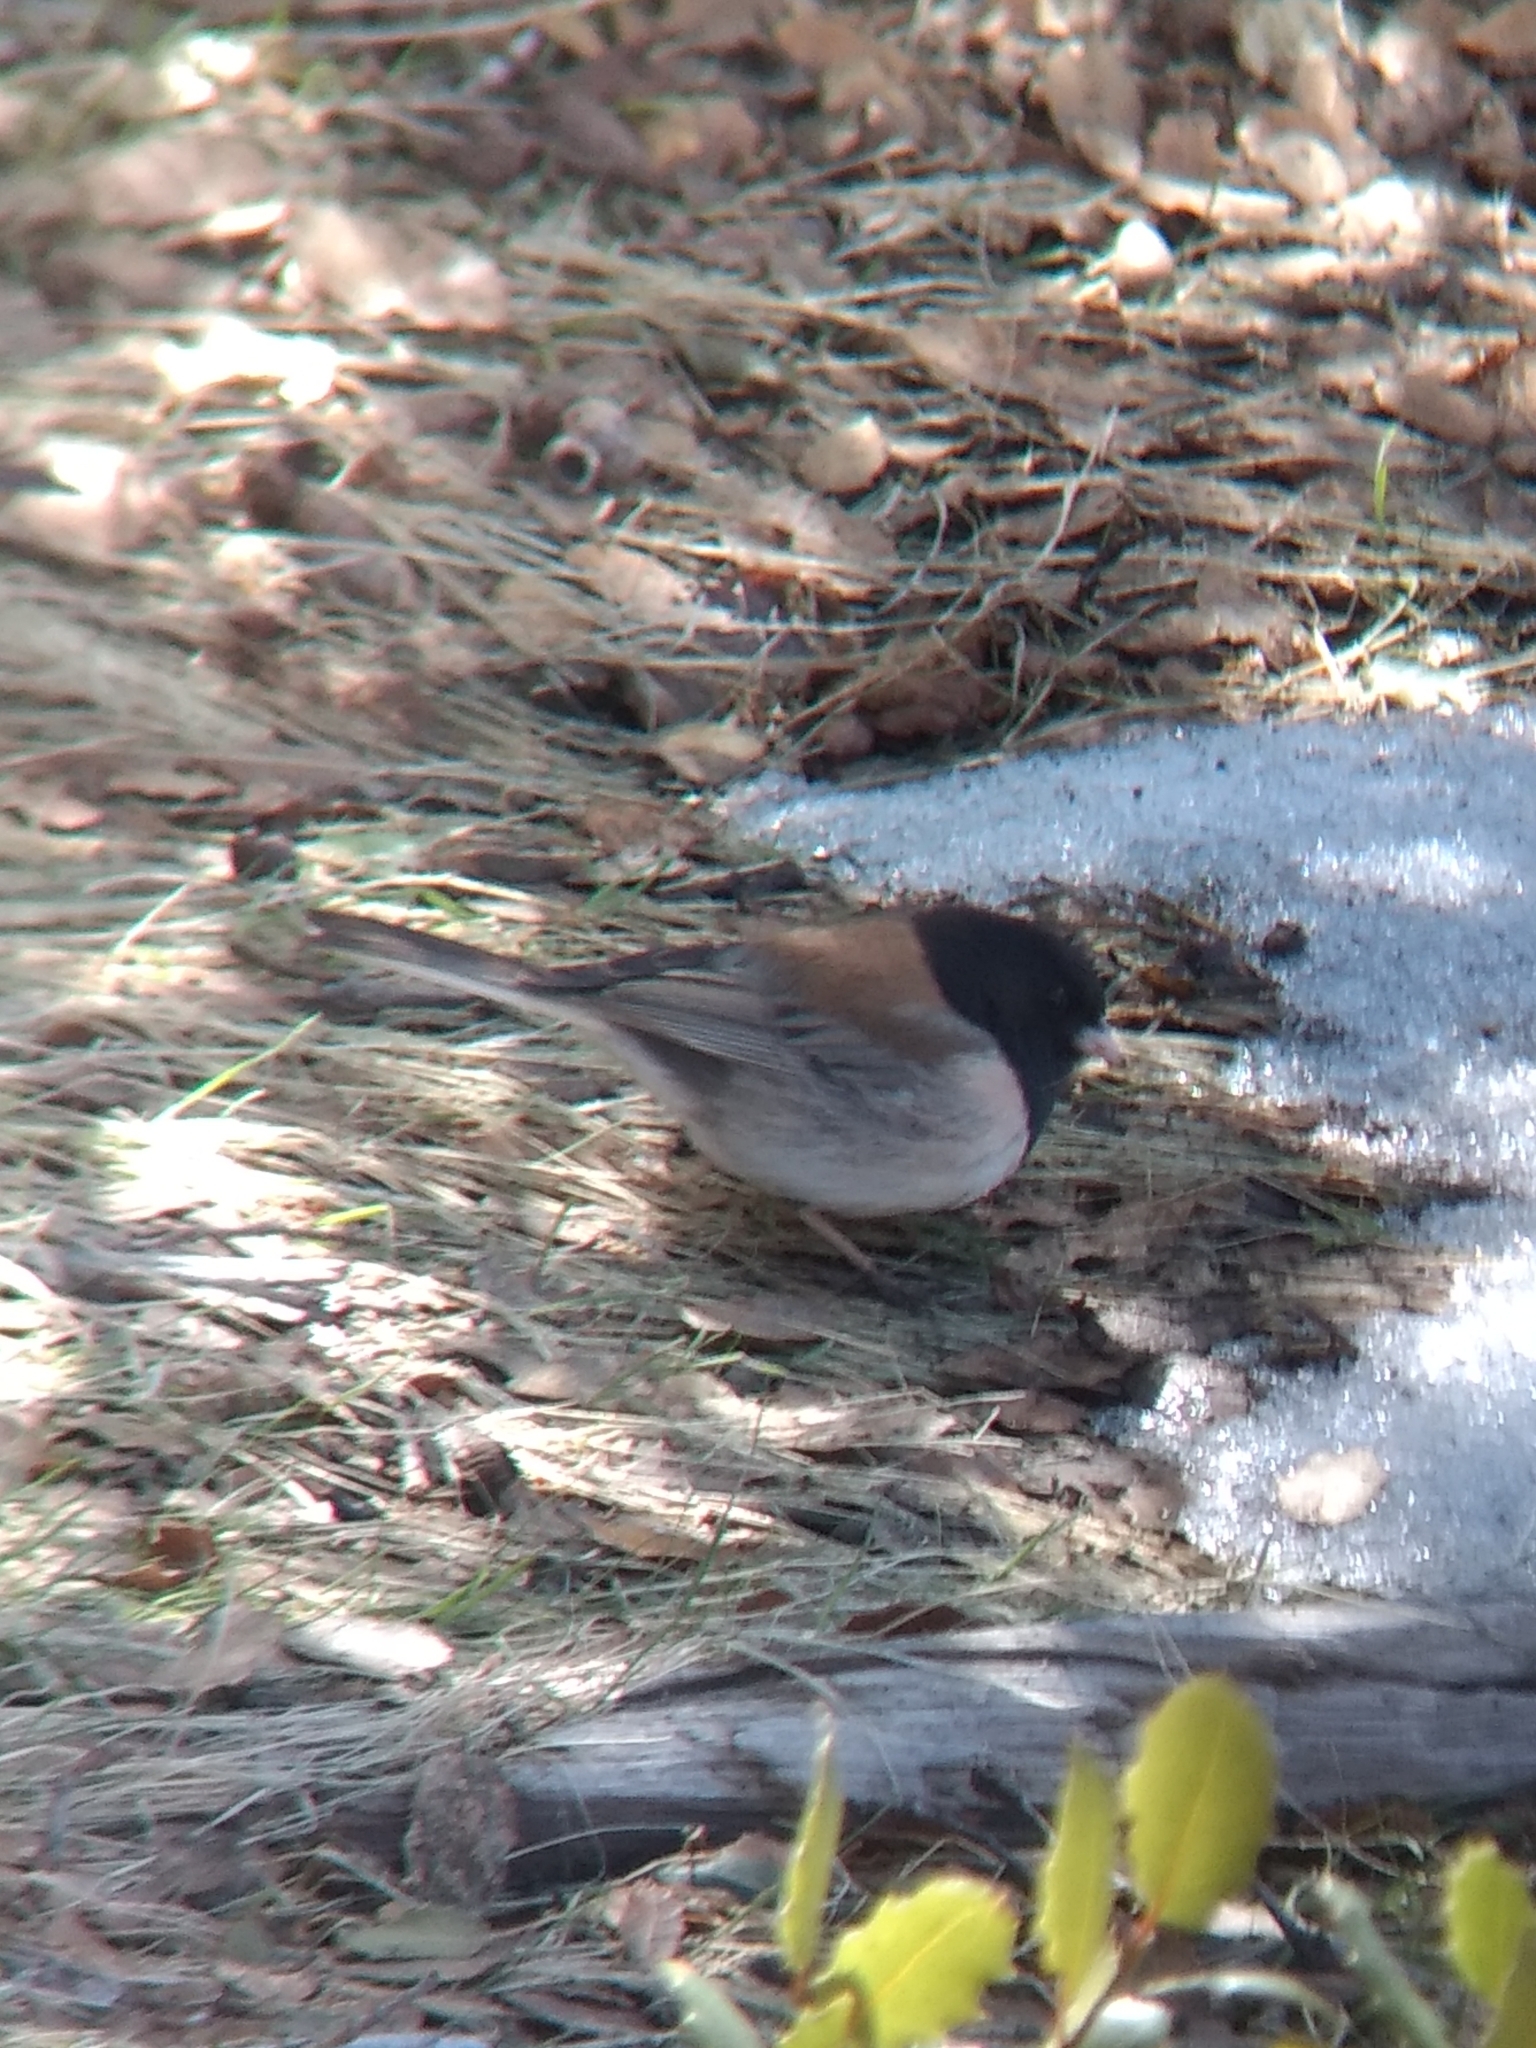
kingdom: Animalia
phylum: Chordata
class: Aves
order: Passeriformes
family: Passerellidae
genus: Junco
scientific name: Junco hyemalis
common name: Dark-eyed junco
